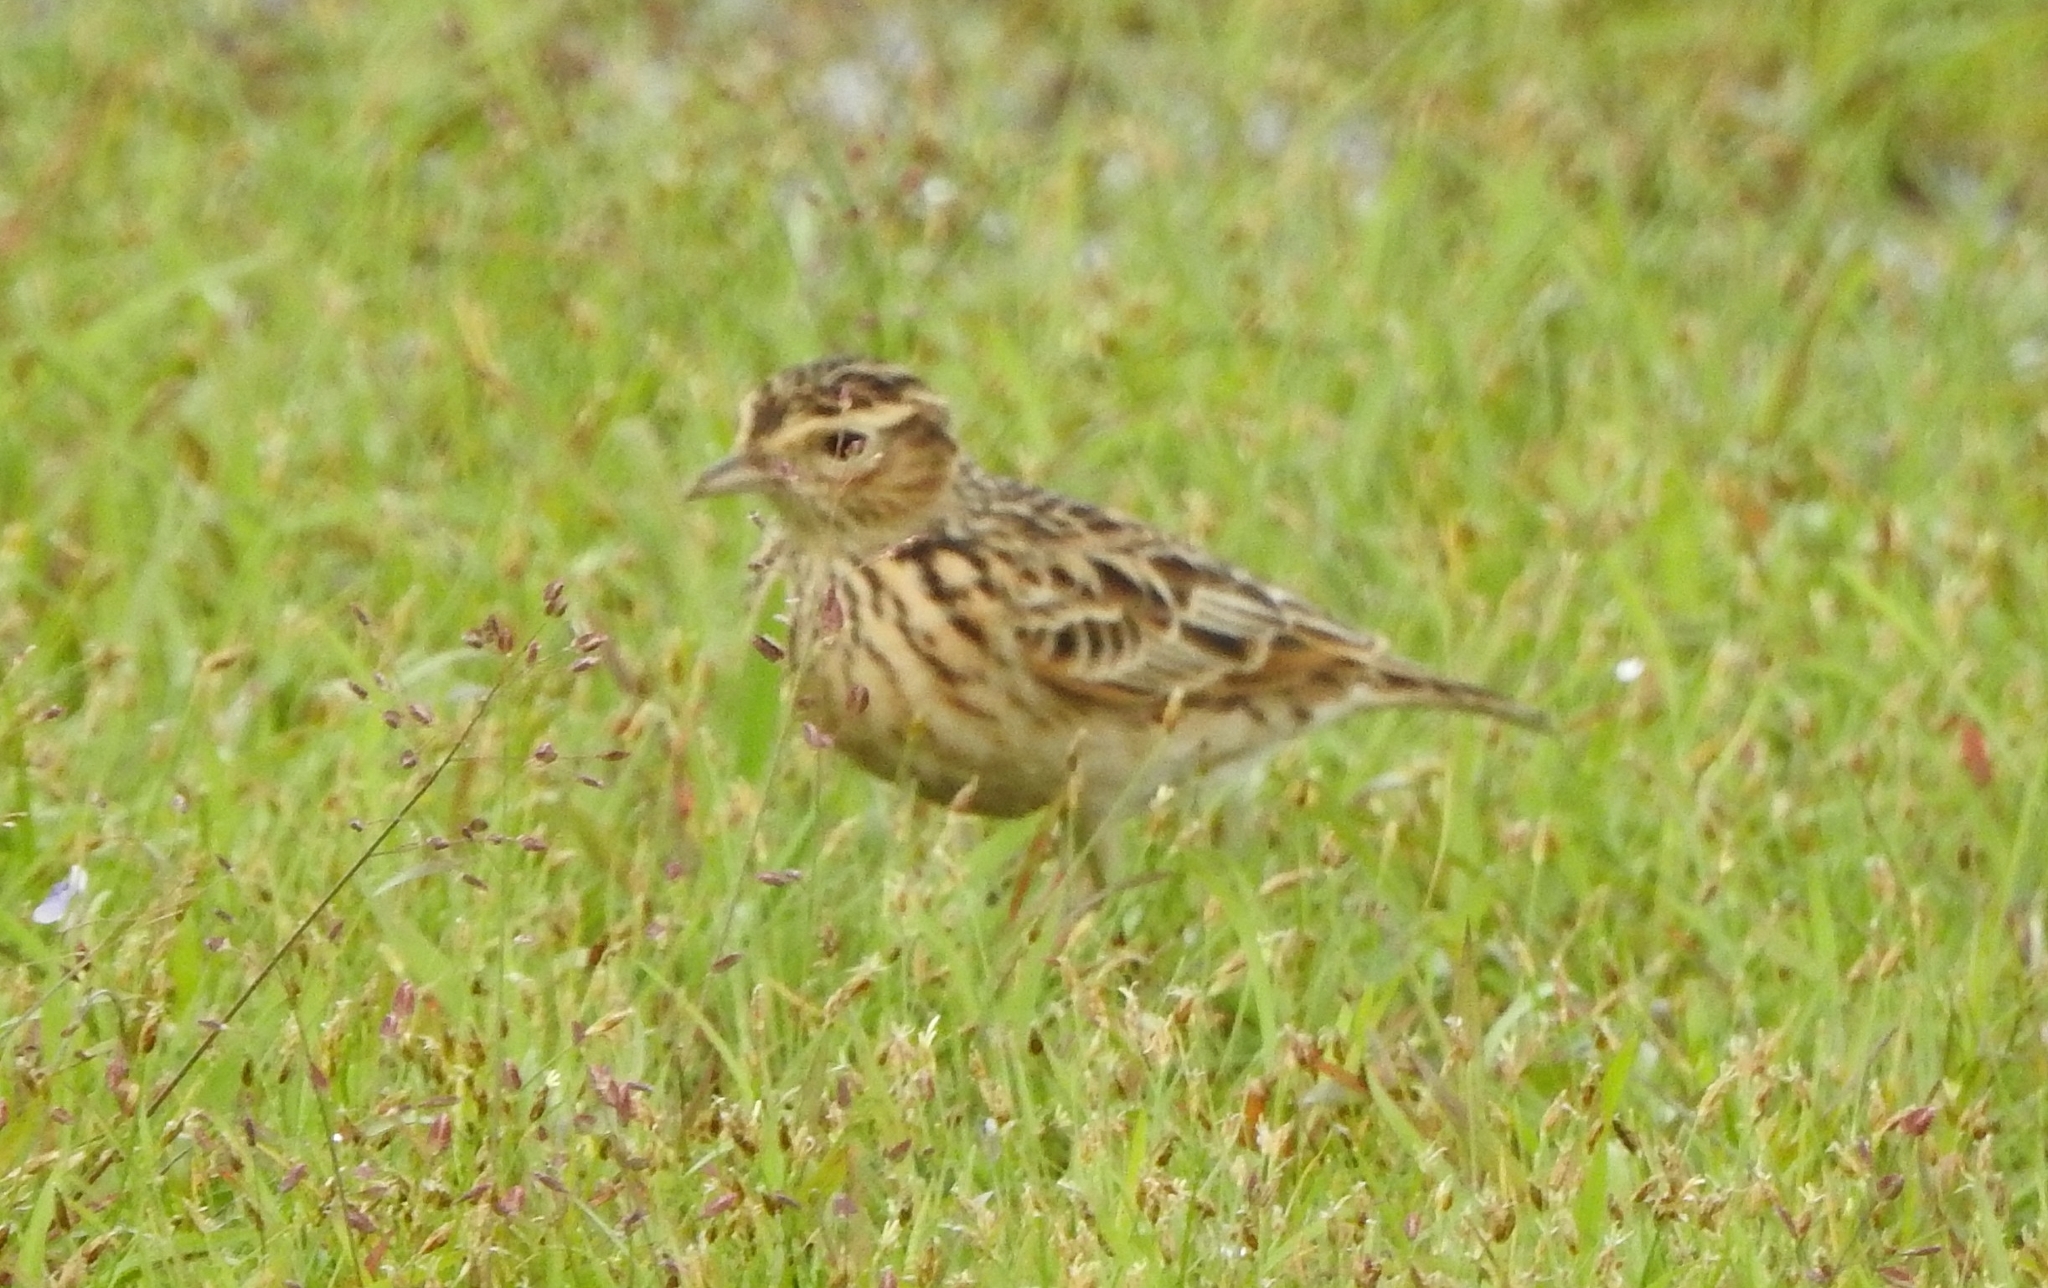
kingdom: Animalia
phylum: Chordata
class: Aves
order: Passeriformes
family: Alaudidae
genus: Alauda
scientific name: Alauda gulgula
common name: Oriental skylark
